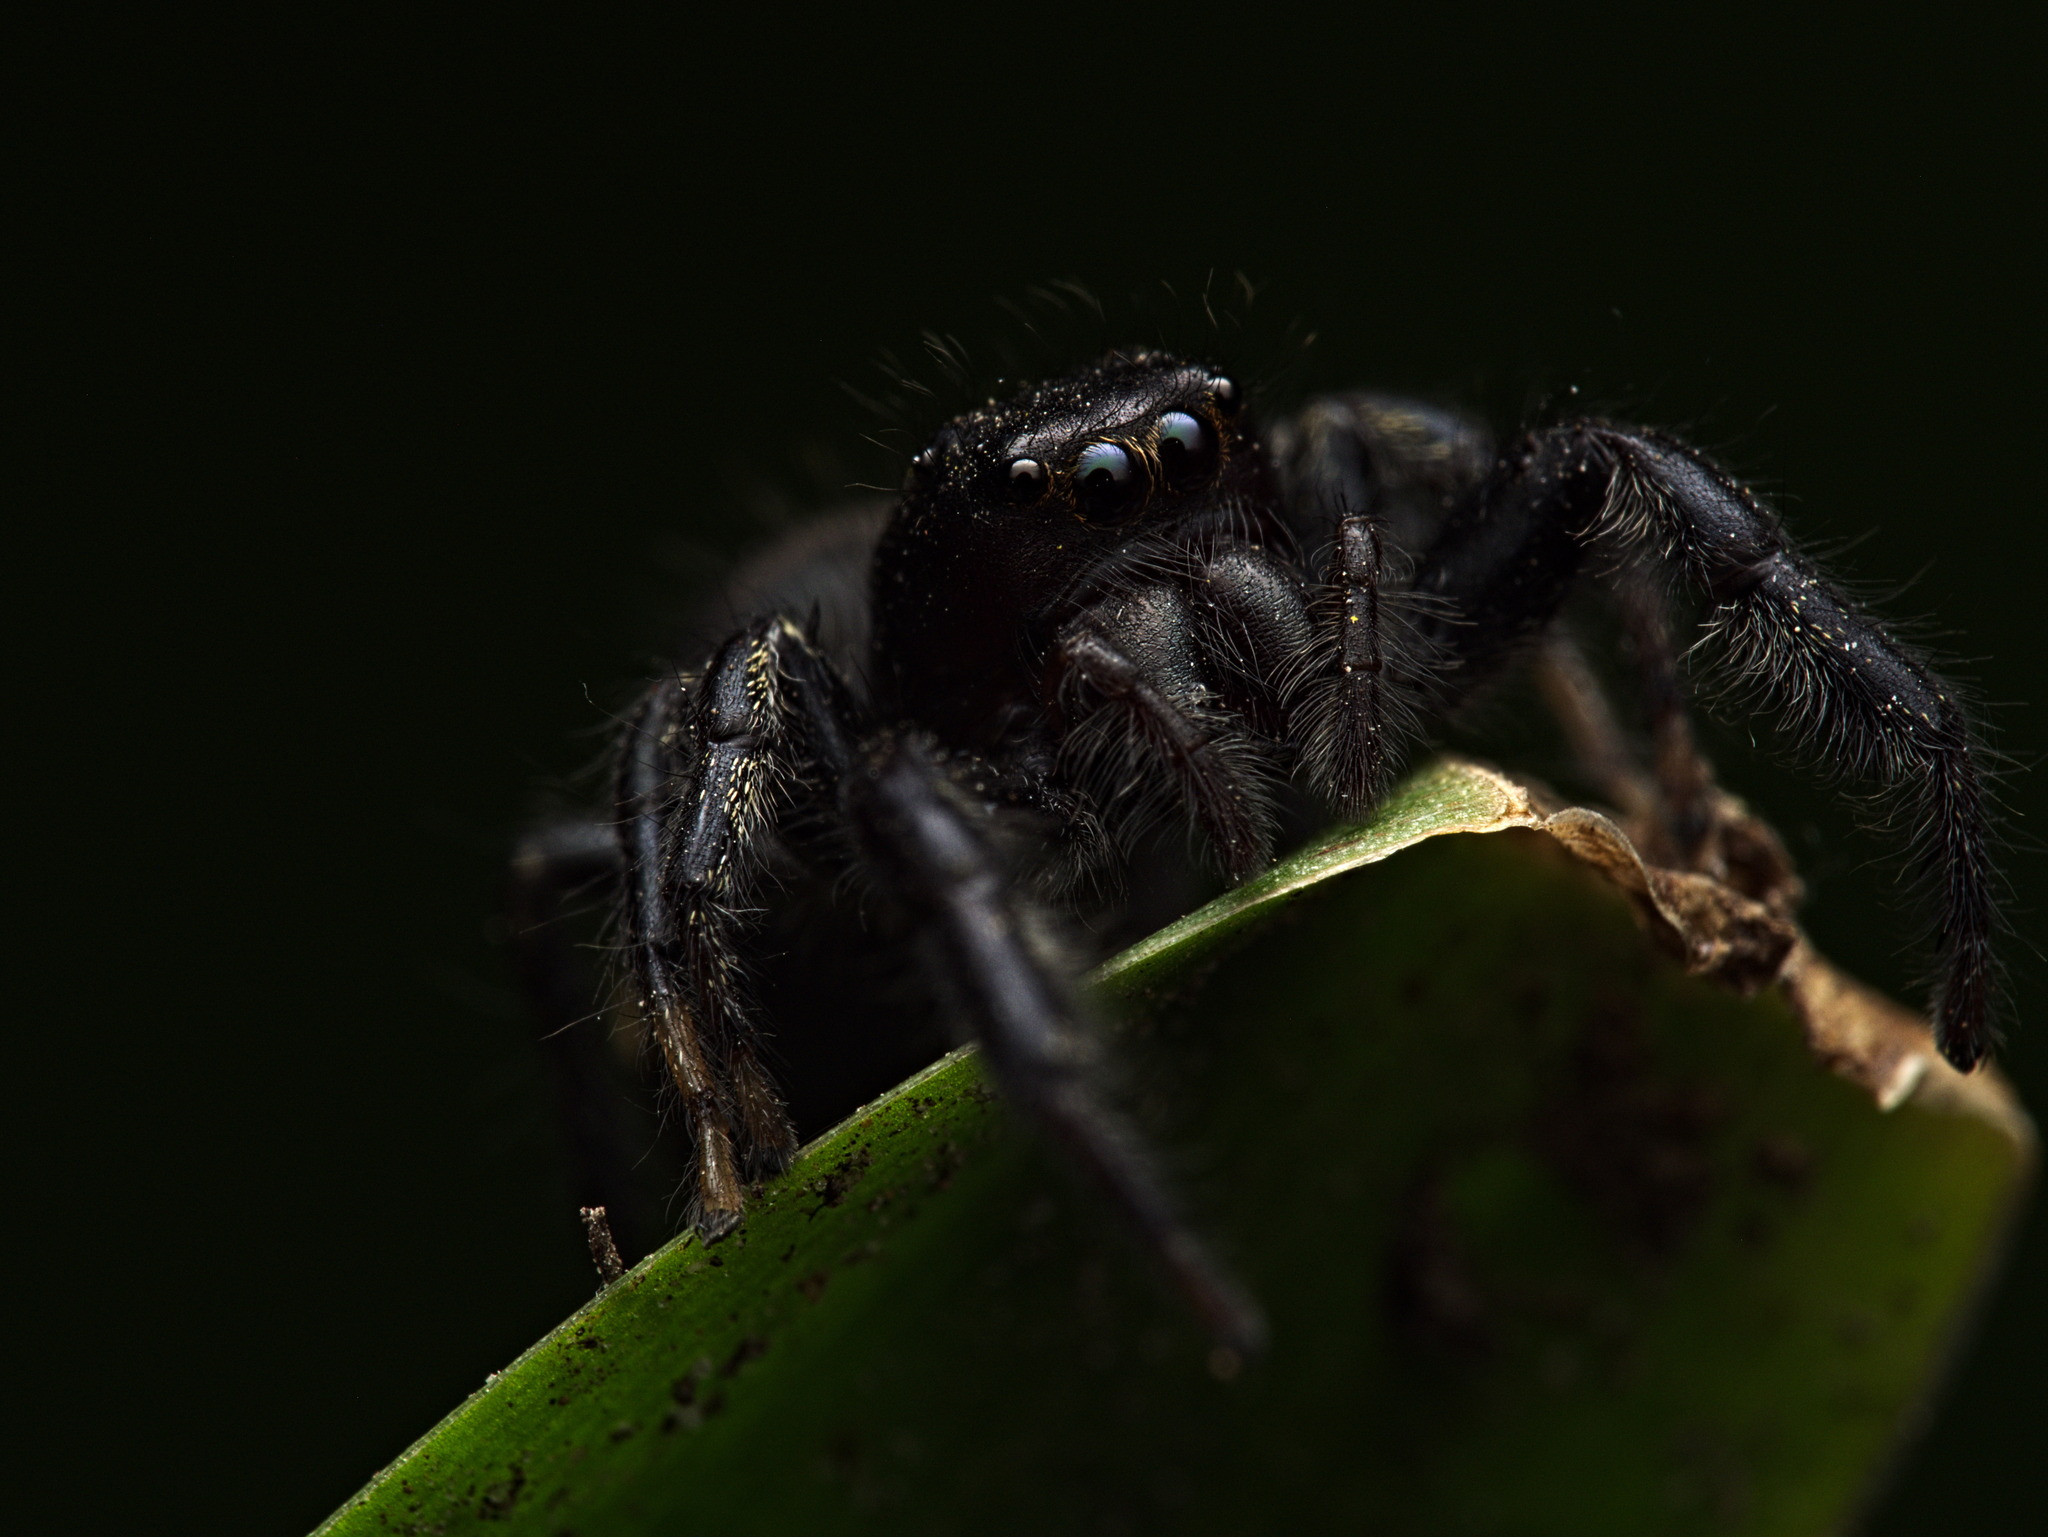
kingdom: Animalia
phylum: Arthropoda
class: Arachnida
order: Araneae
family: Salticidae
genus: Paraphidippus
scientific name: Paraphidippus aurantius
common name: Jumping spiders
